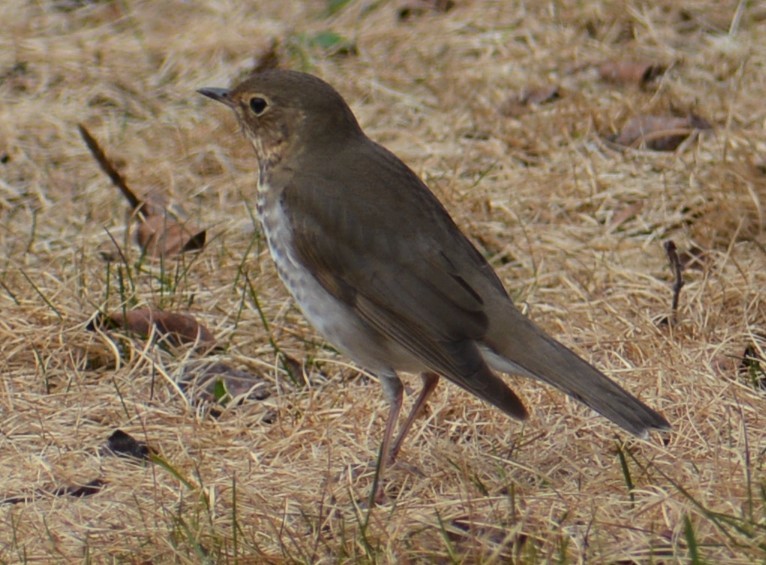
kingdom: Animalia
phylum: Chordata
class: Aves
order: Passeriformes
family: Turdidae
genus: Catharus
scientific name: Catharus ustulatus
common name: Swainson's thrush
